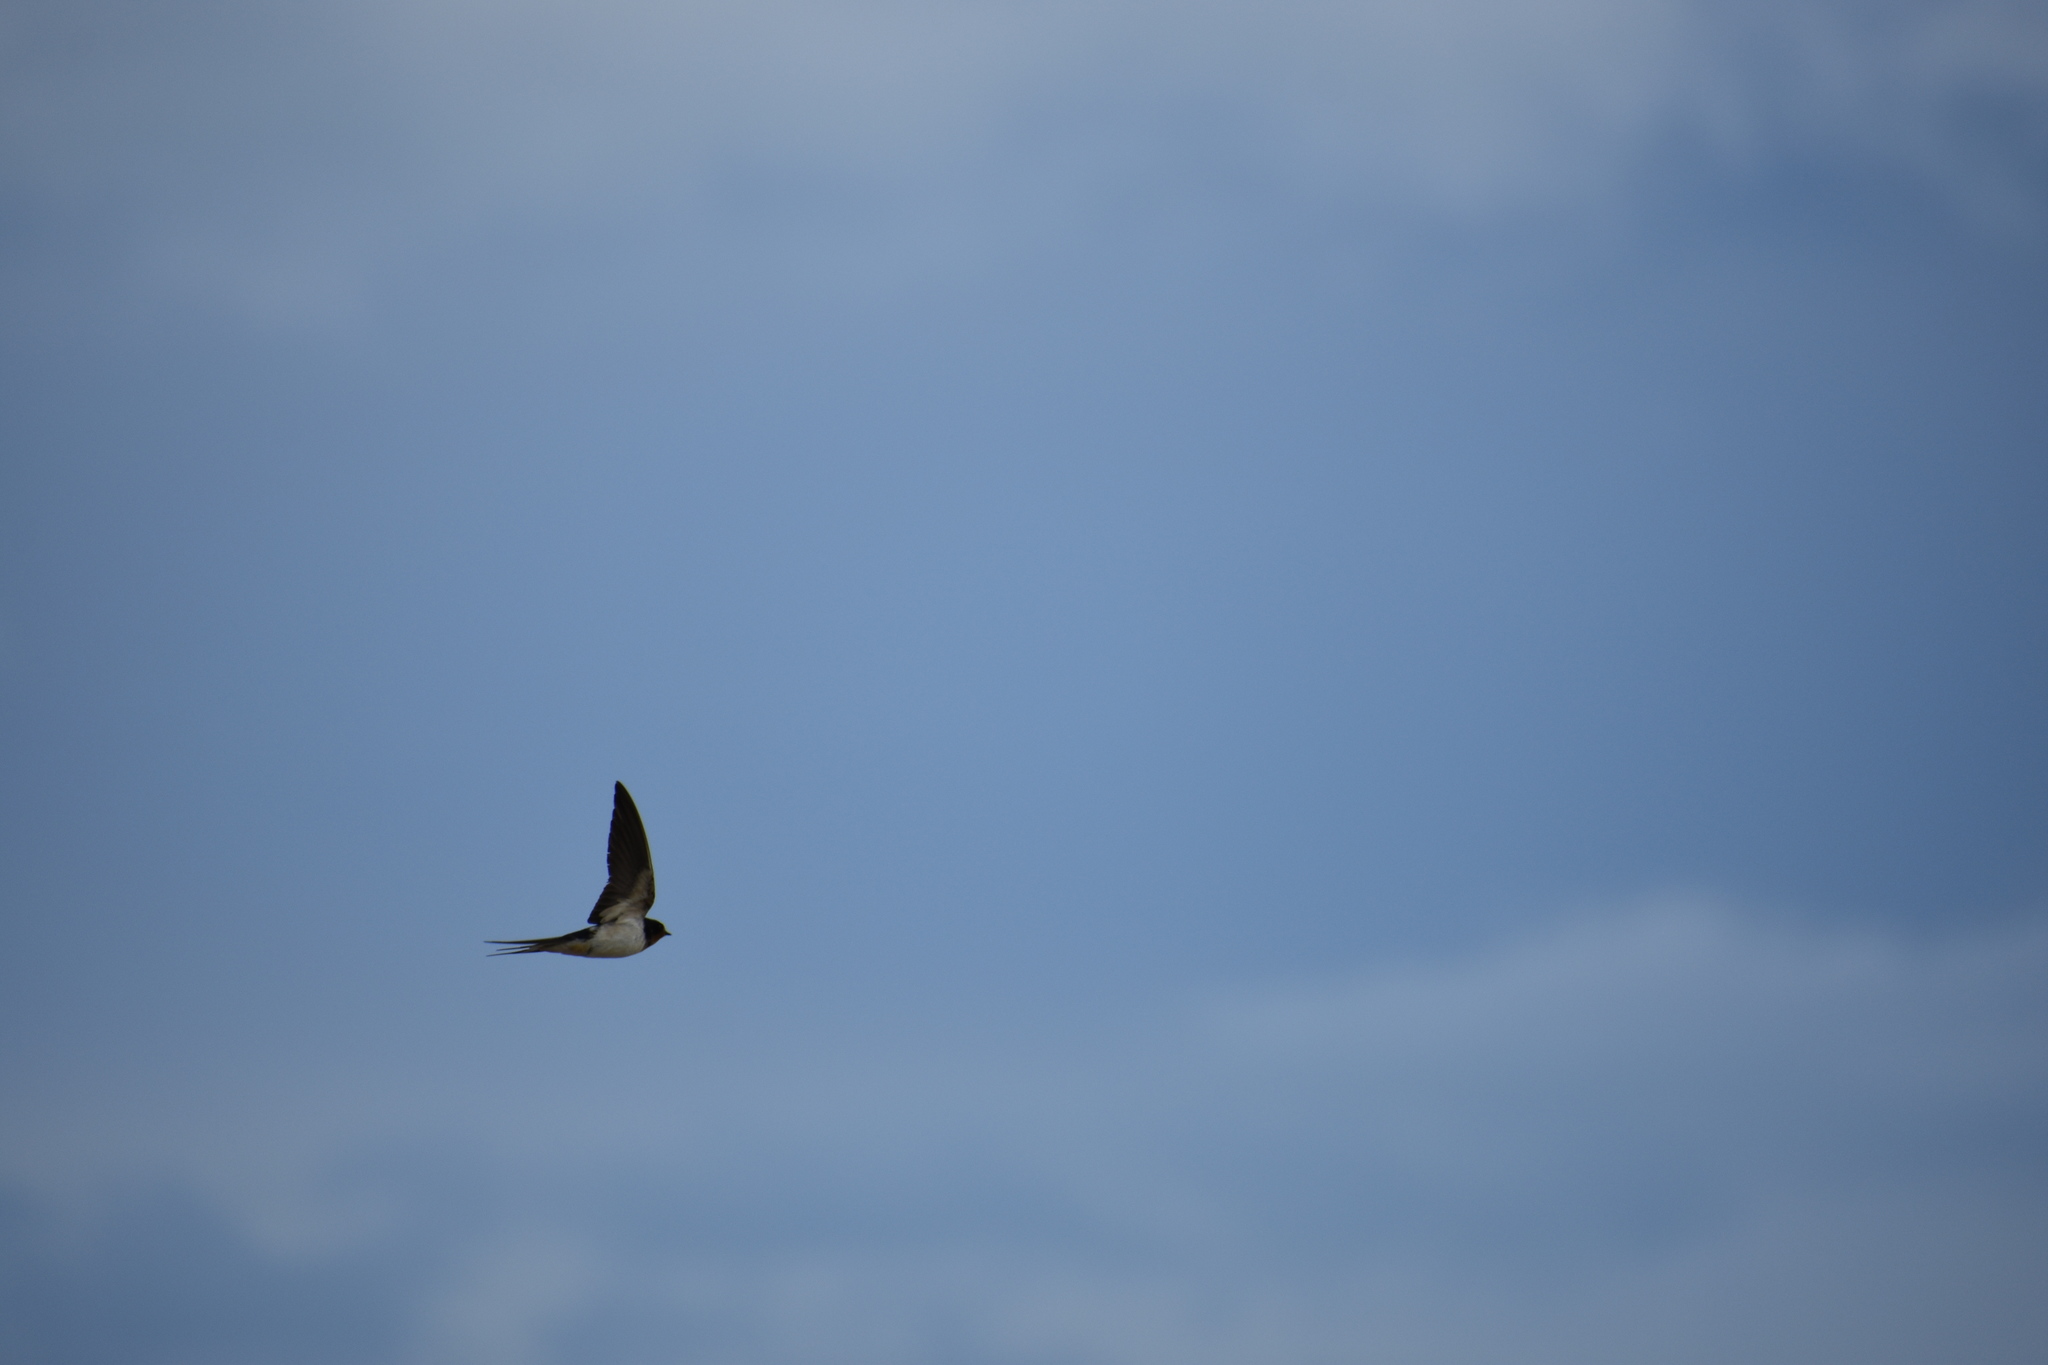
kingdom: Animalia
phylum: Chordata
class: Aves
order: Passeriformes
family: Hirundinidae
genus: Hirundo
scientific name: Hirundo rustica
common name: Barn swallow
